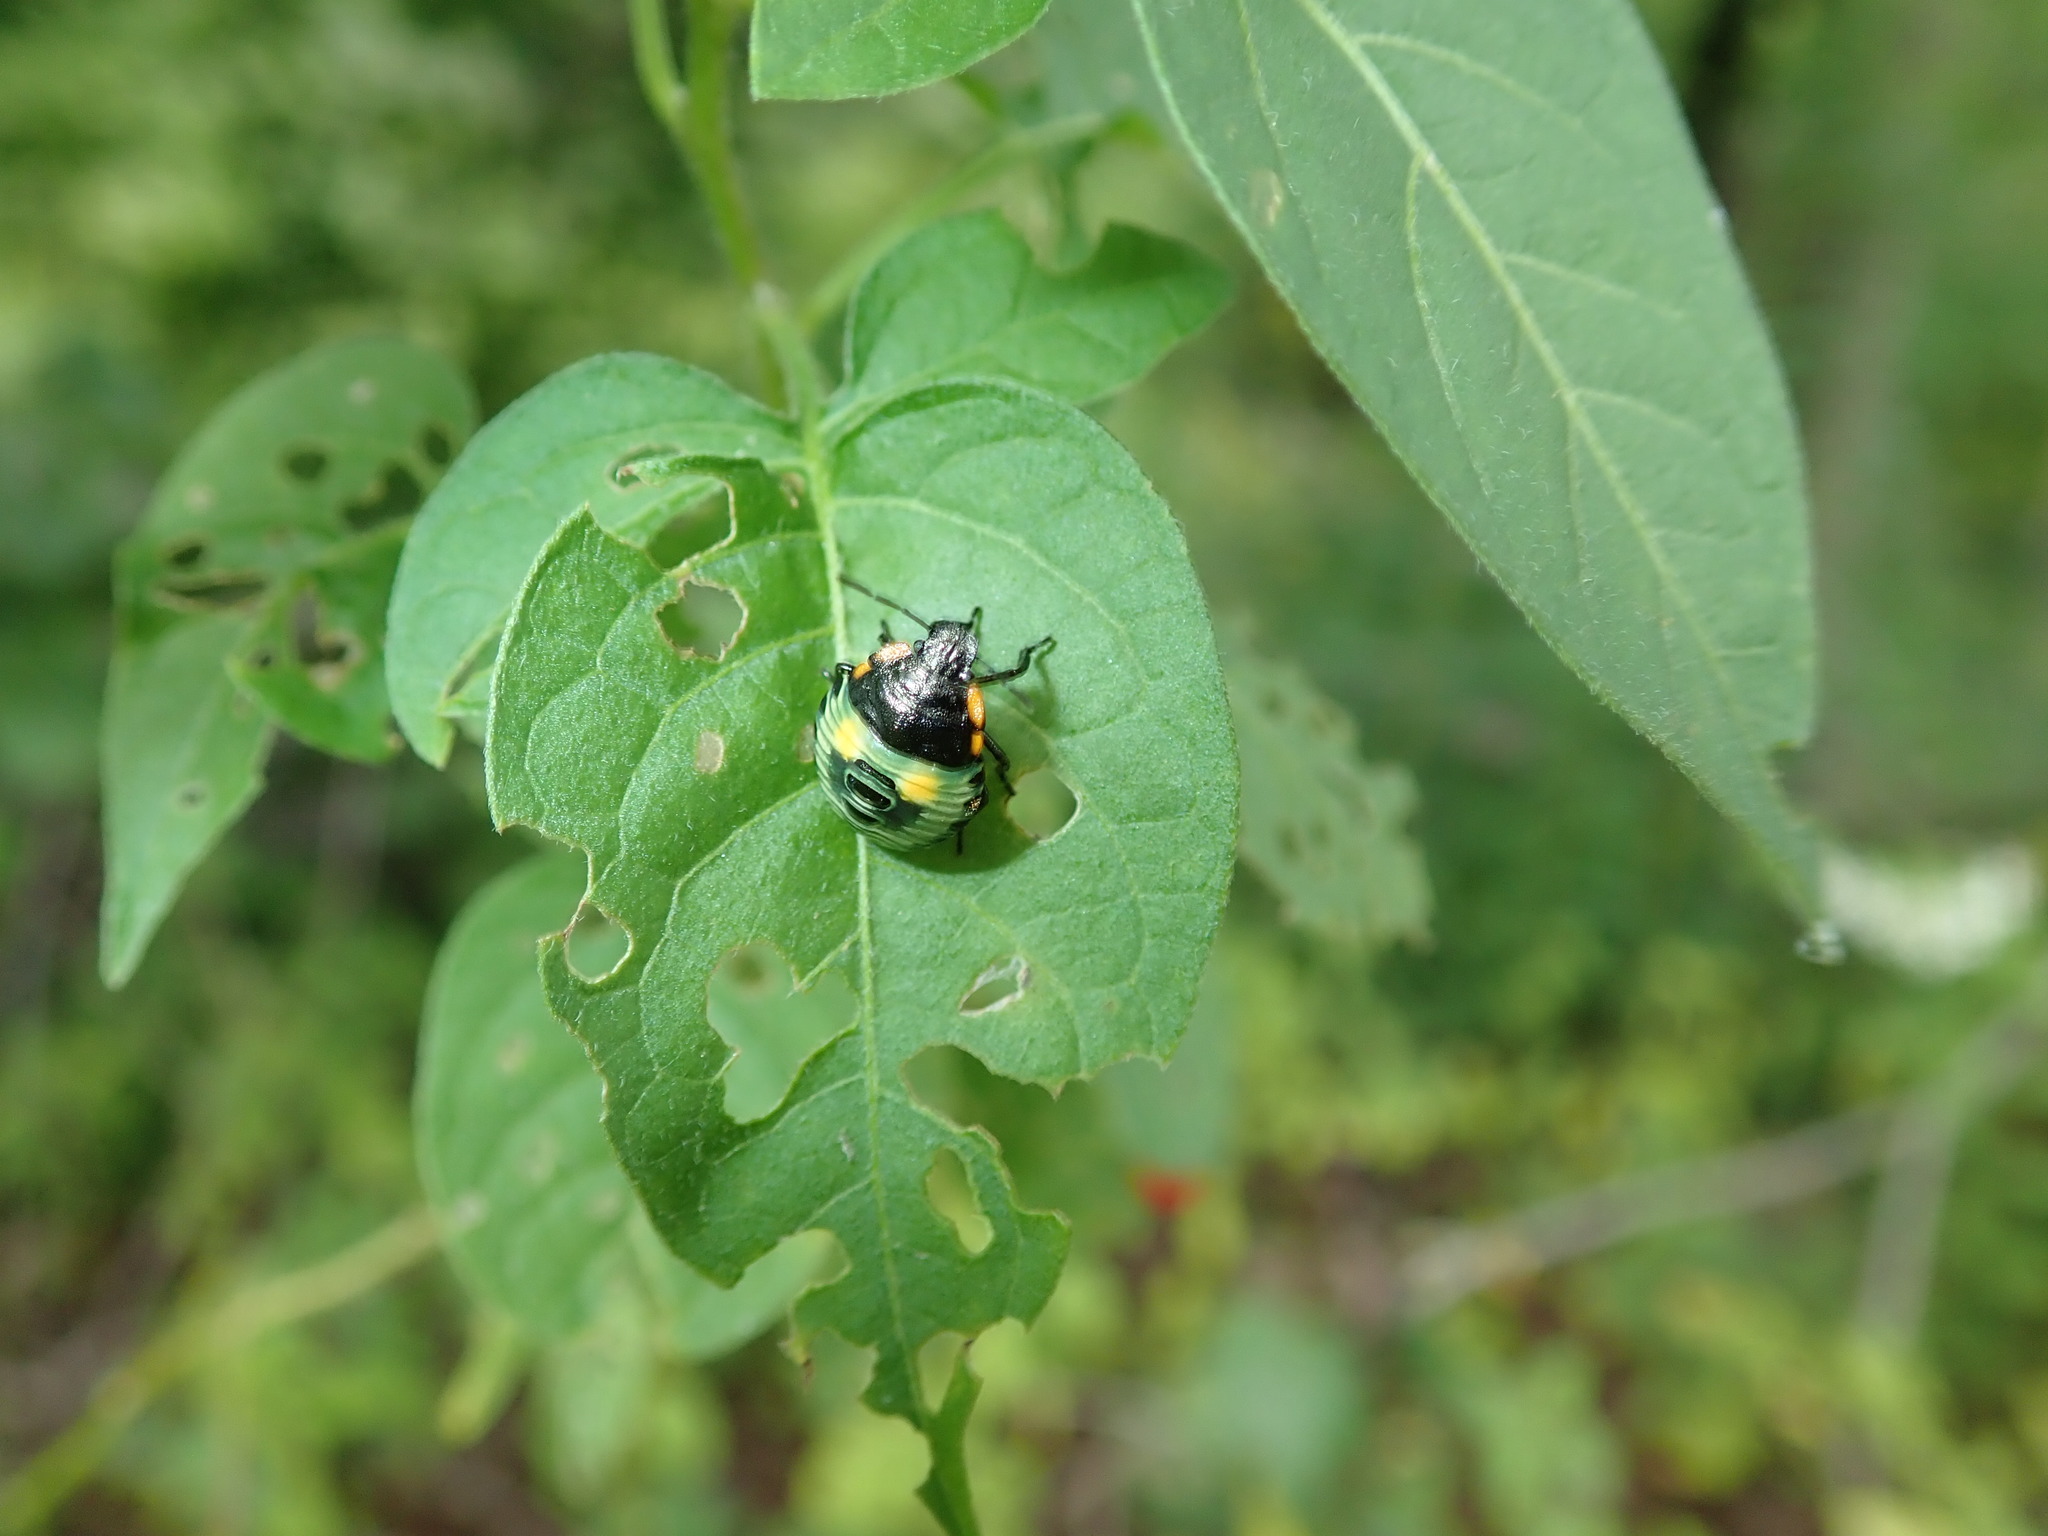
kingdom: Animalia
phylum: Arthropoda
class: Insecta
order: Hemiptera
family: Pentatomidae
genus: Chinavia
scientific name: Chinavia hilaris
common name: Green stink bug
